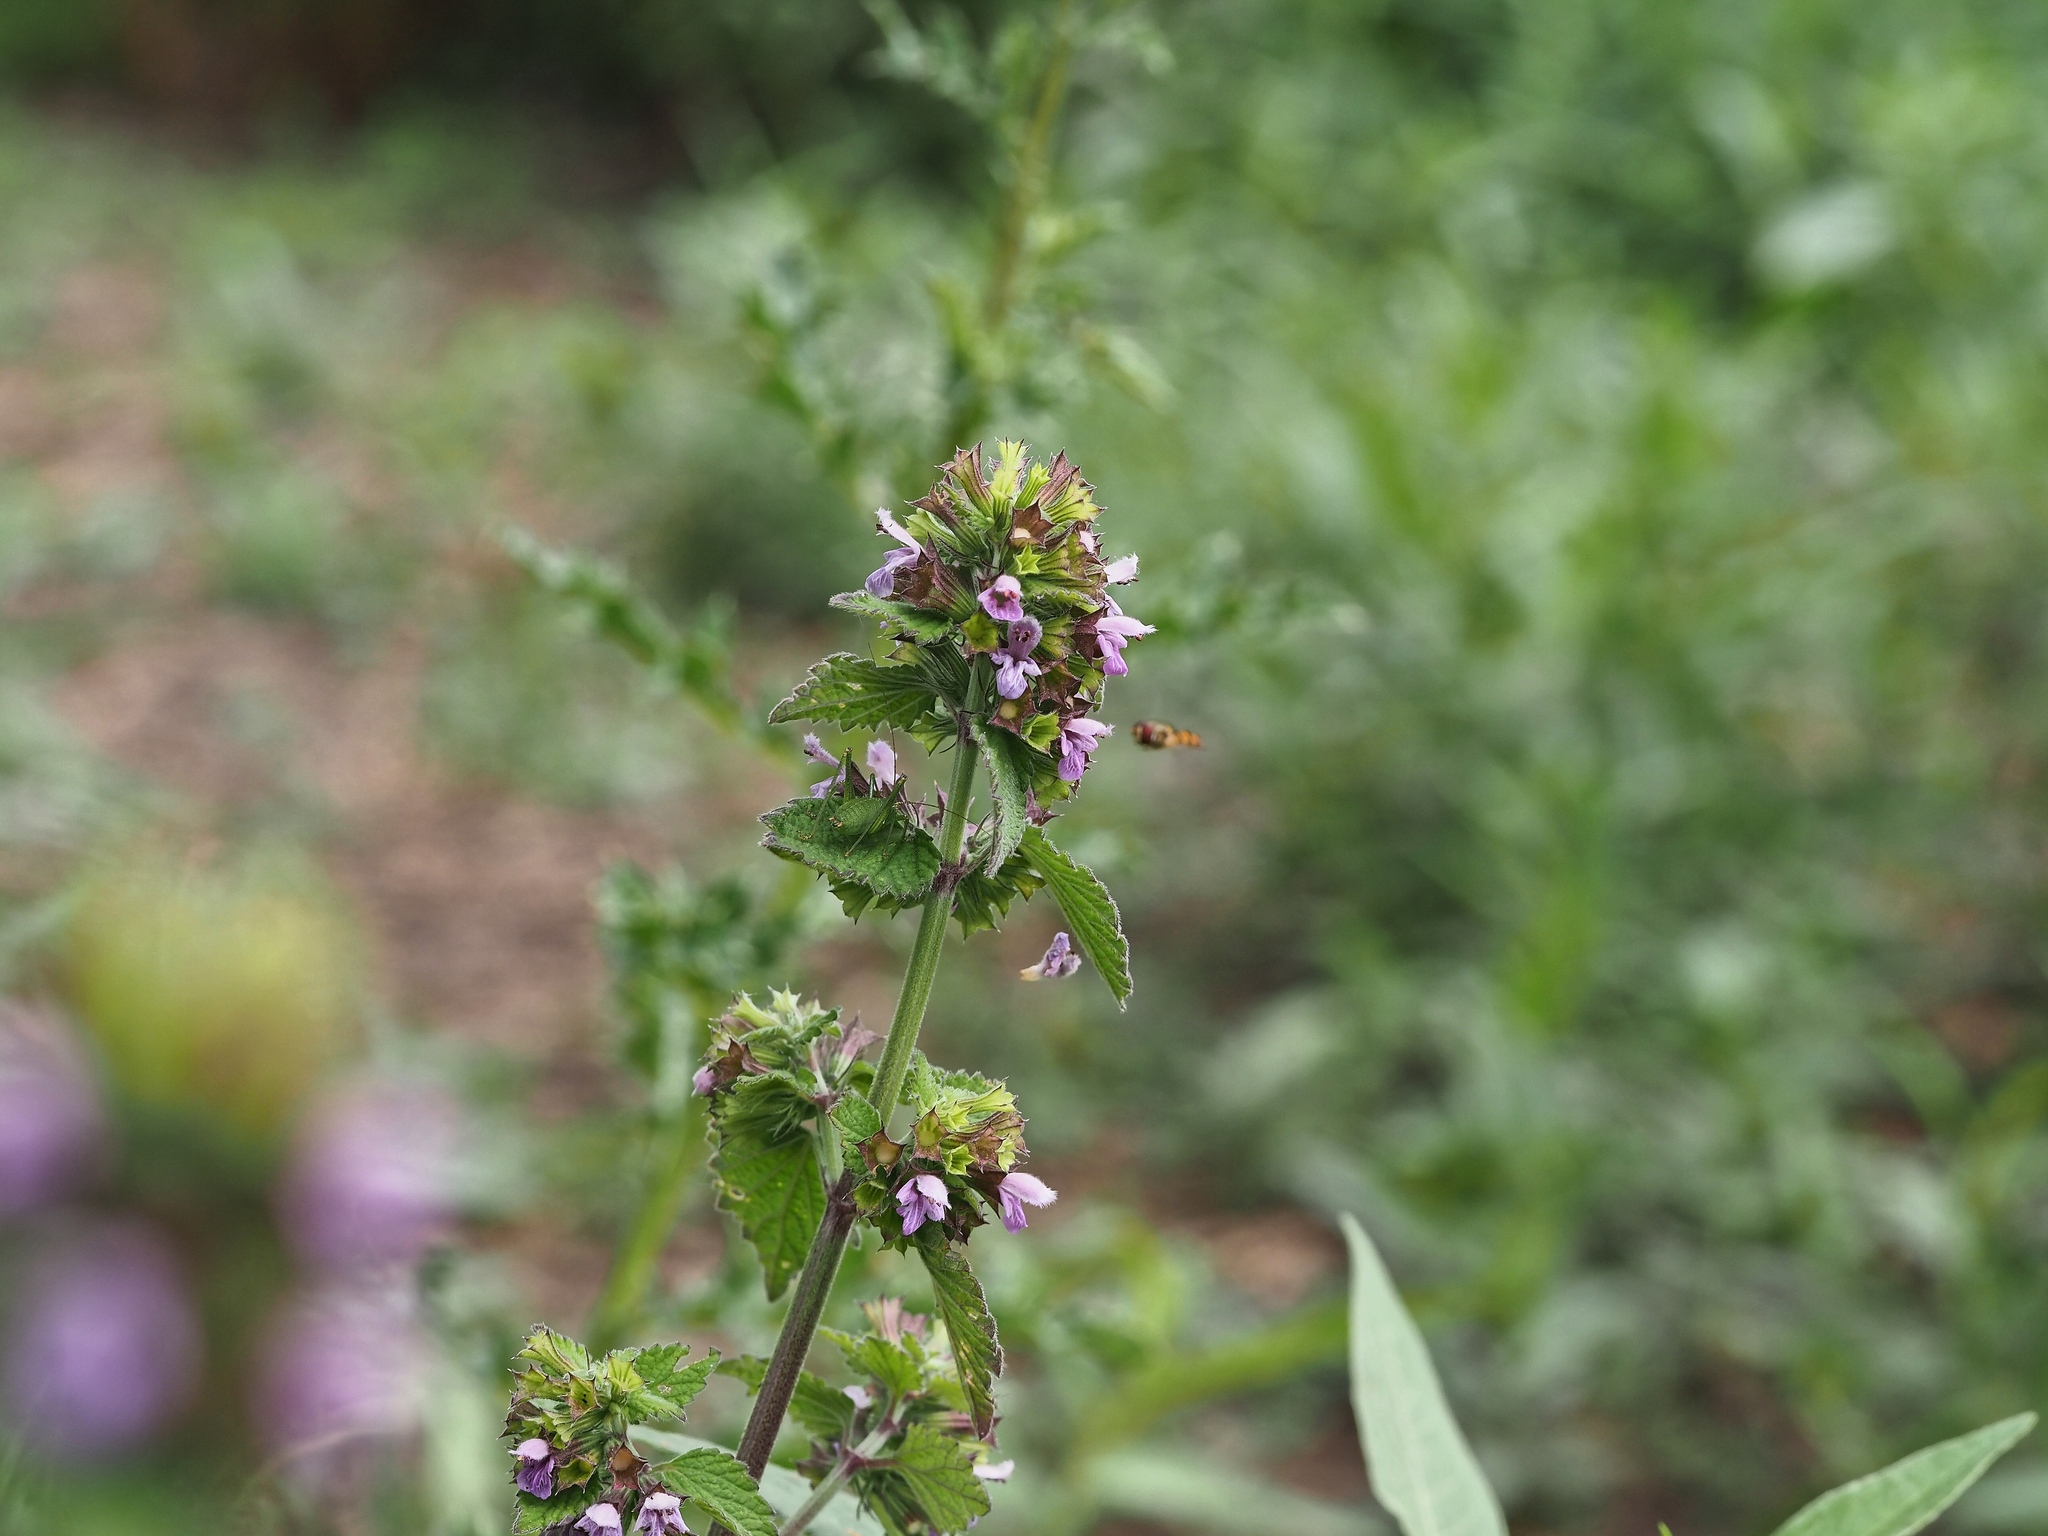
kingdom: Plantae
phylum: Tracheophyta
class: Magnoliopsida
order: Lamiales
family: Lamiaceae
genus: Ballota
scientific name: Ballota nigra
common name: Black horehound
